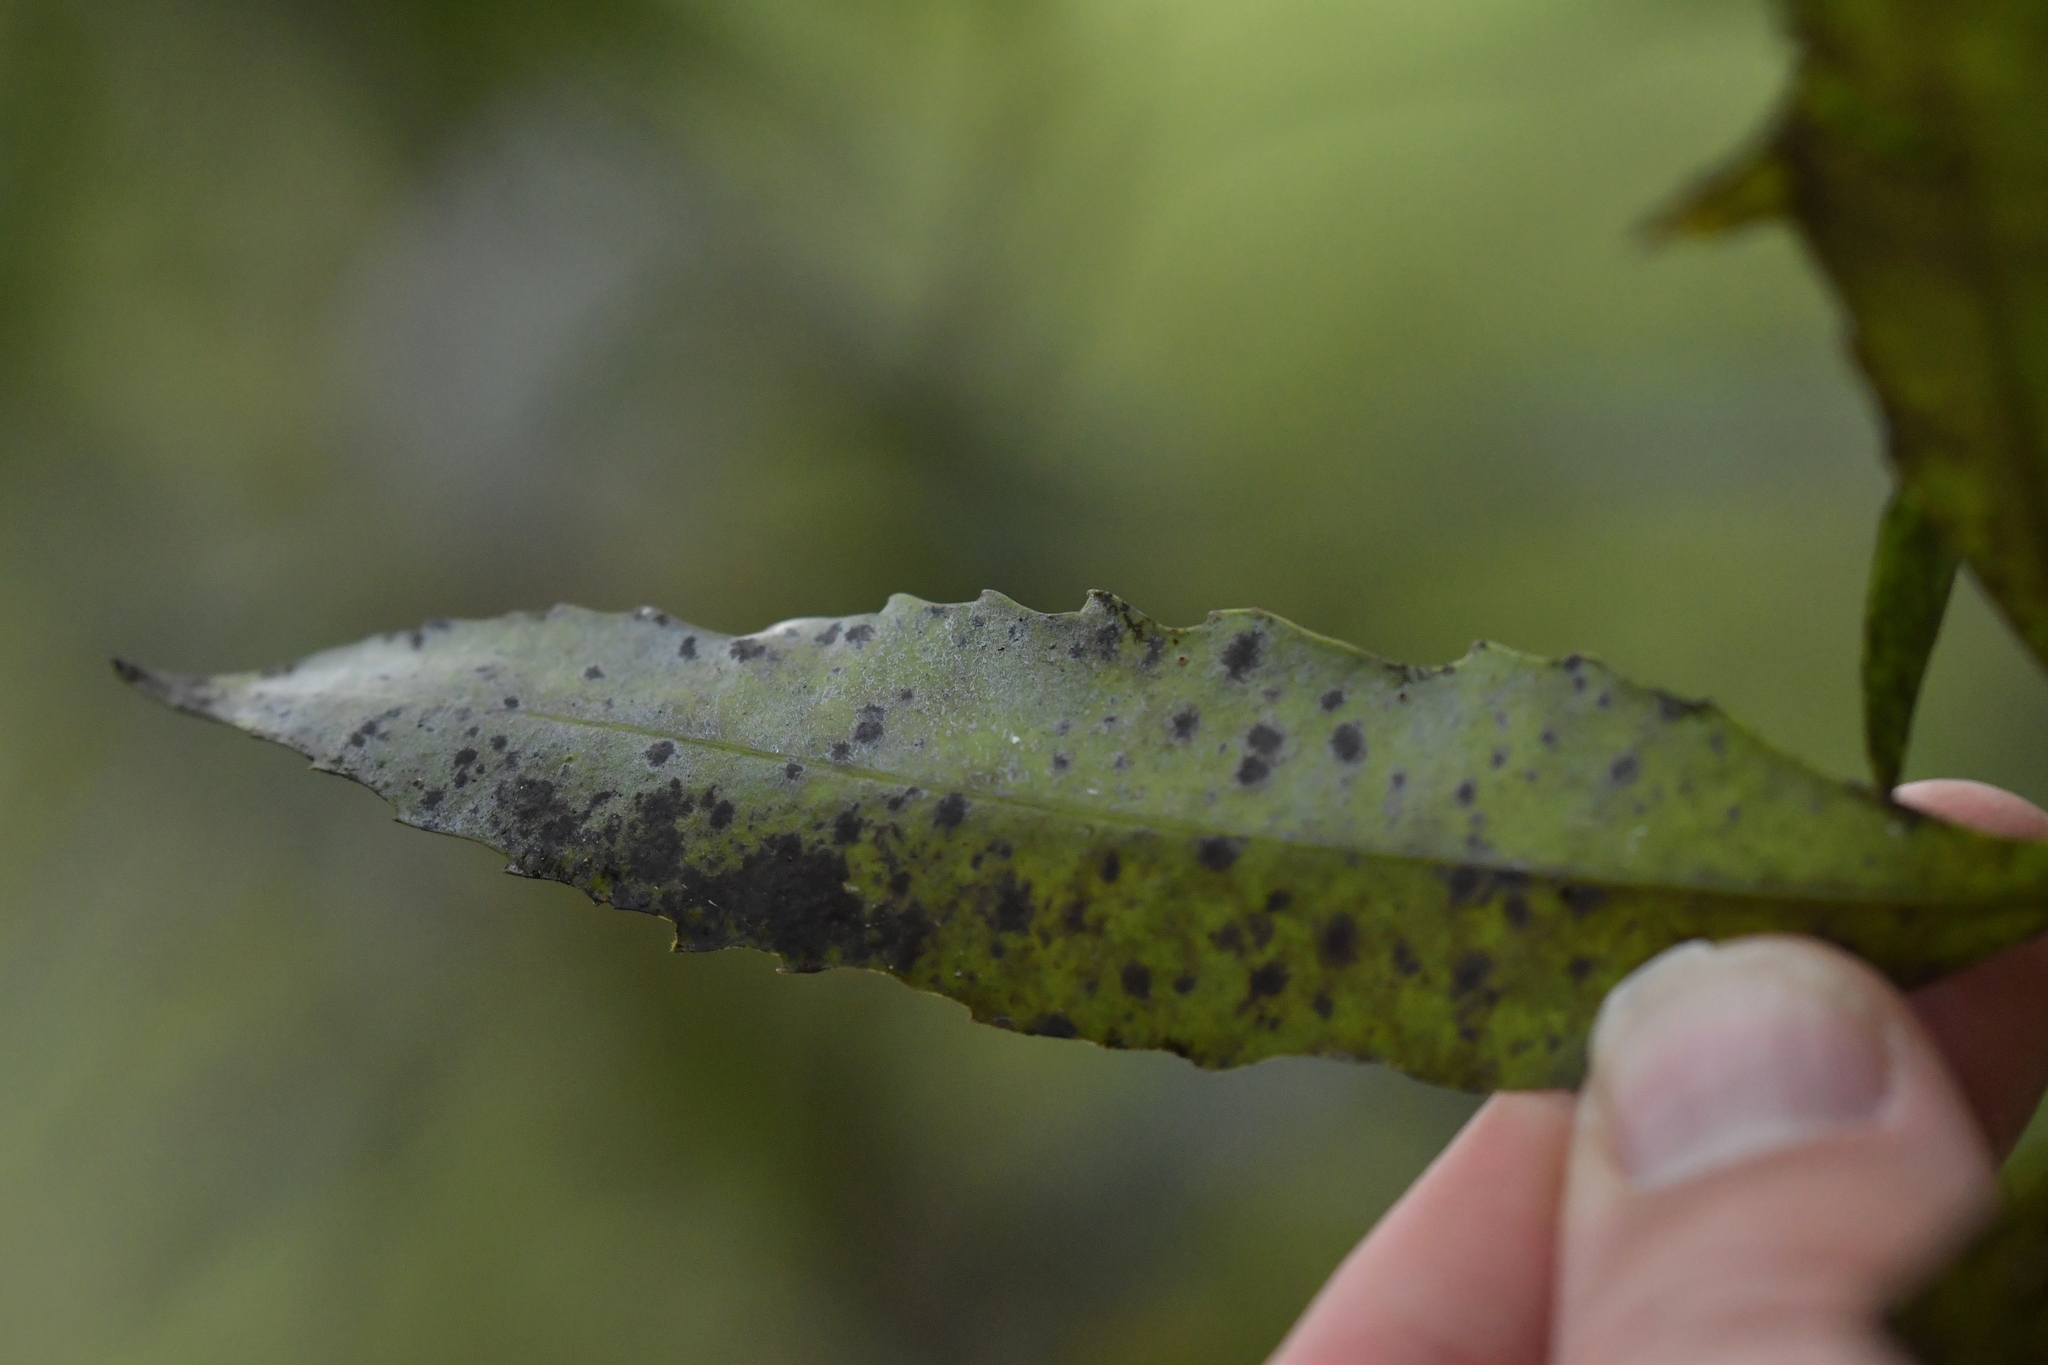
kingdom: Plantae
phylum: Tracheophyta
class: Magnoliopsida
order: Apiales
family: Araliaceae
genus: Raukaua
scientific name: Raukaua simplex
